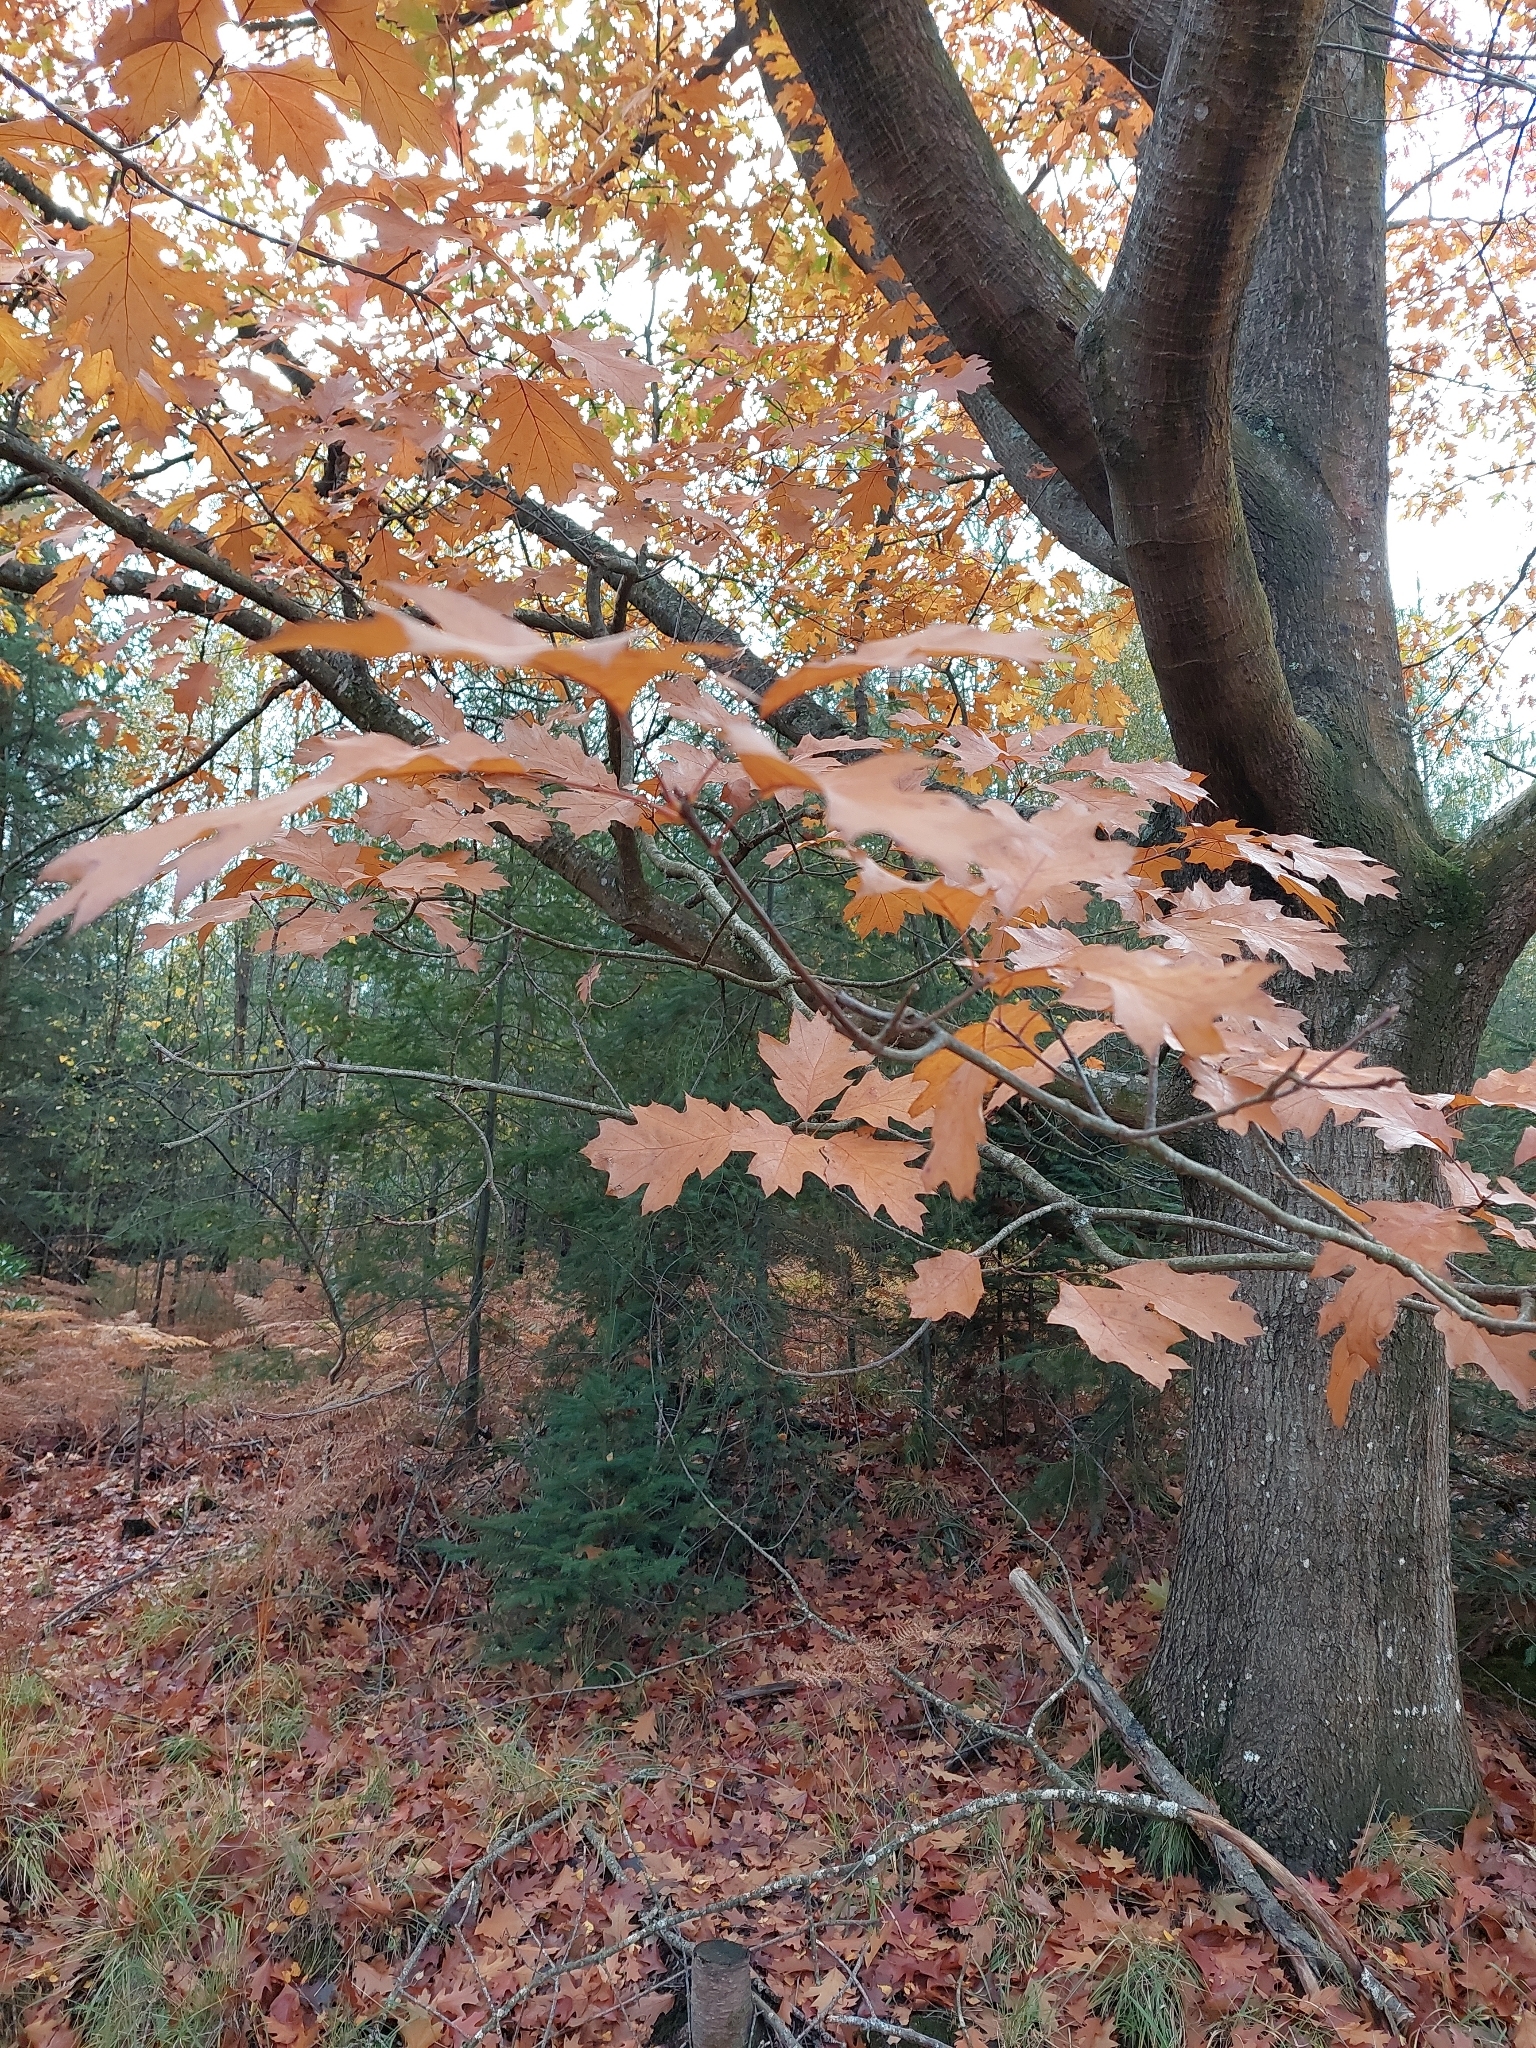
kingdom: Plantae
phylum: Tracheophyta
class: Magnoliopsida
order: Fagales
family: Fagaceae
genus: Quercus
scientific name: Quercus rubra
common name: Red oak
